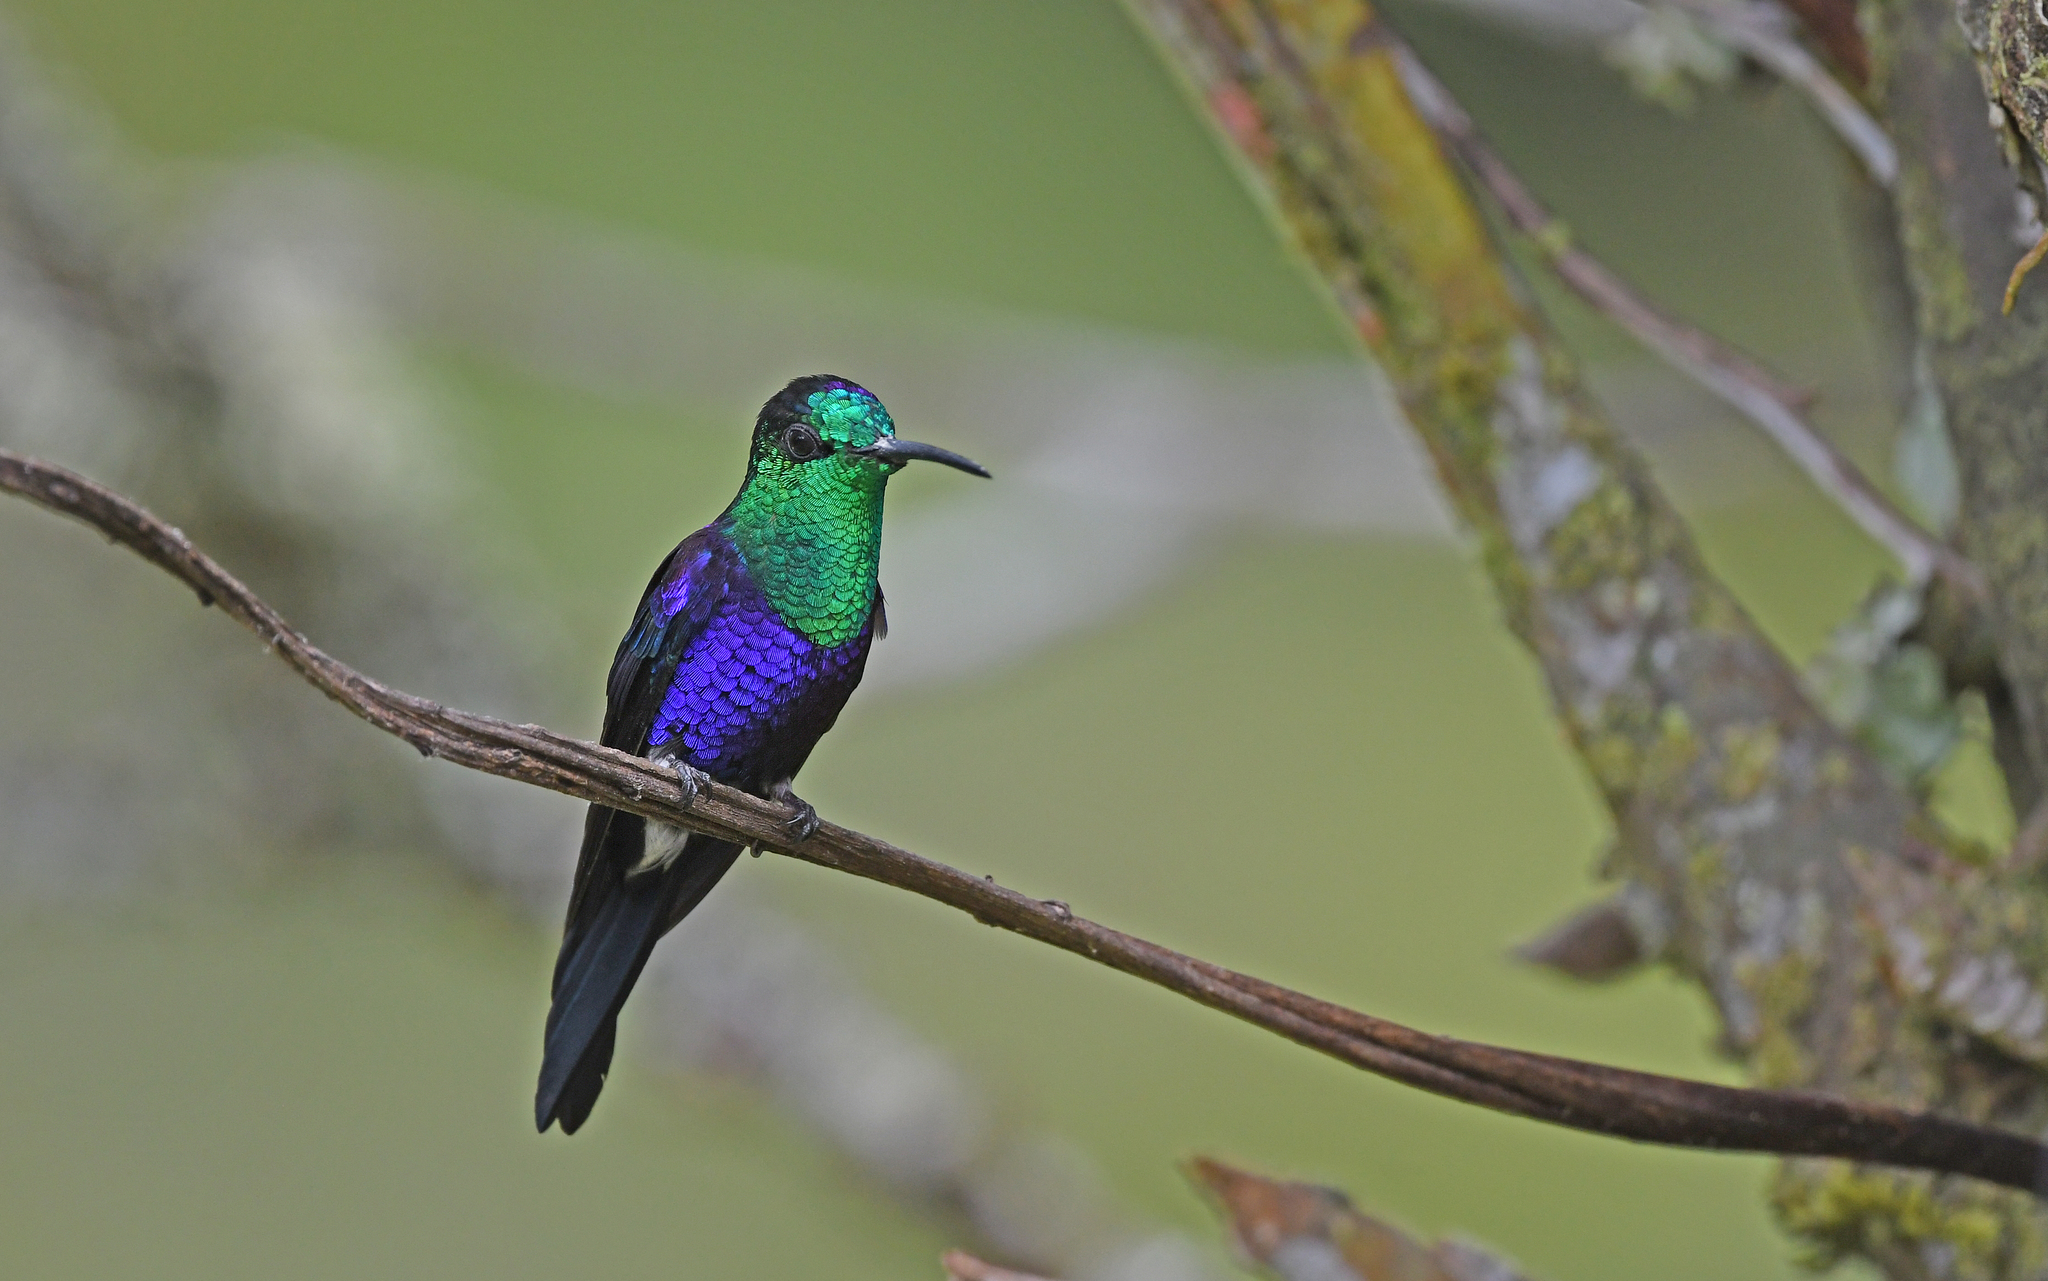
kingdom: Animalia
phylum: Chordata
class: Aves
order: Apodiformes
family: Trochilidae
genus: Thalurania
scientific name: Thalurania colombica
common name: Crowned woodnymph
